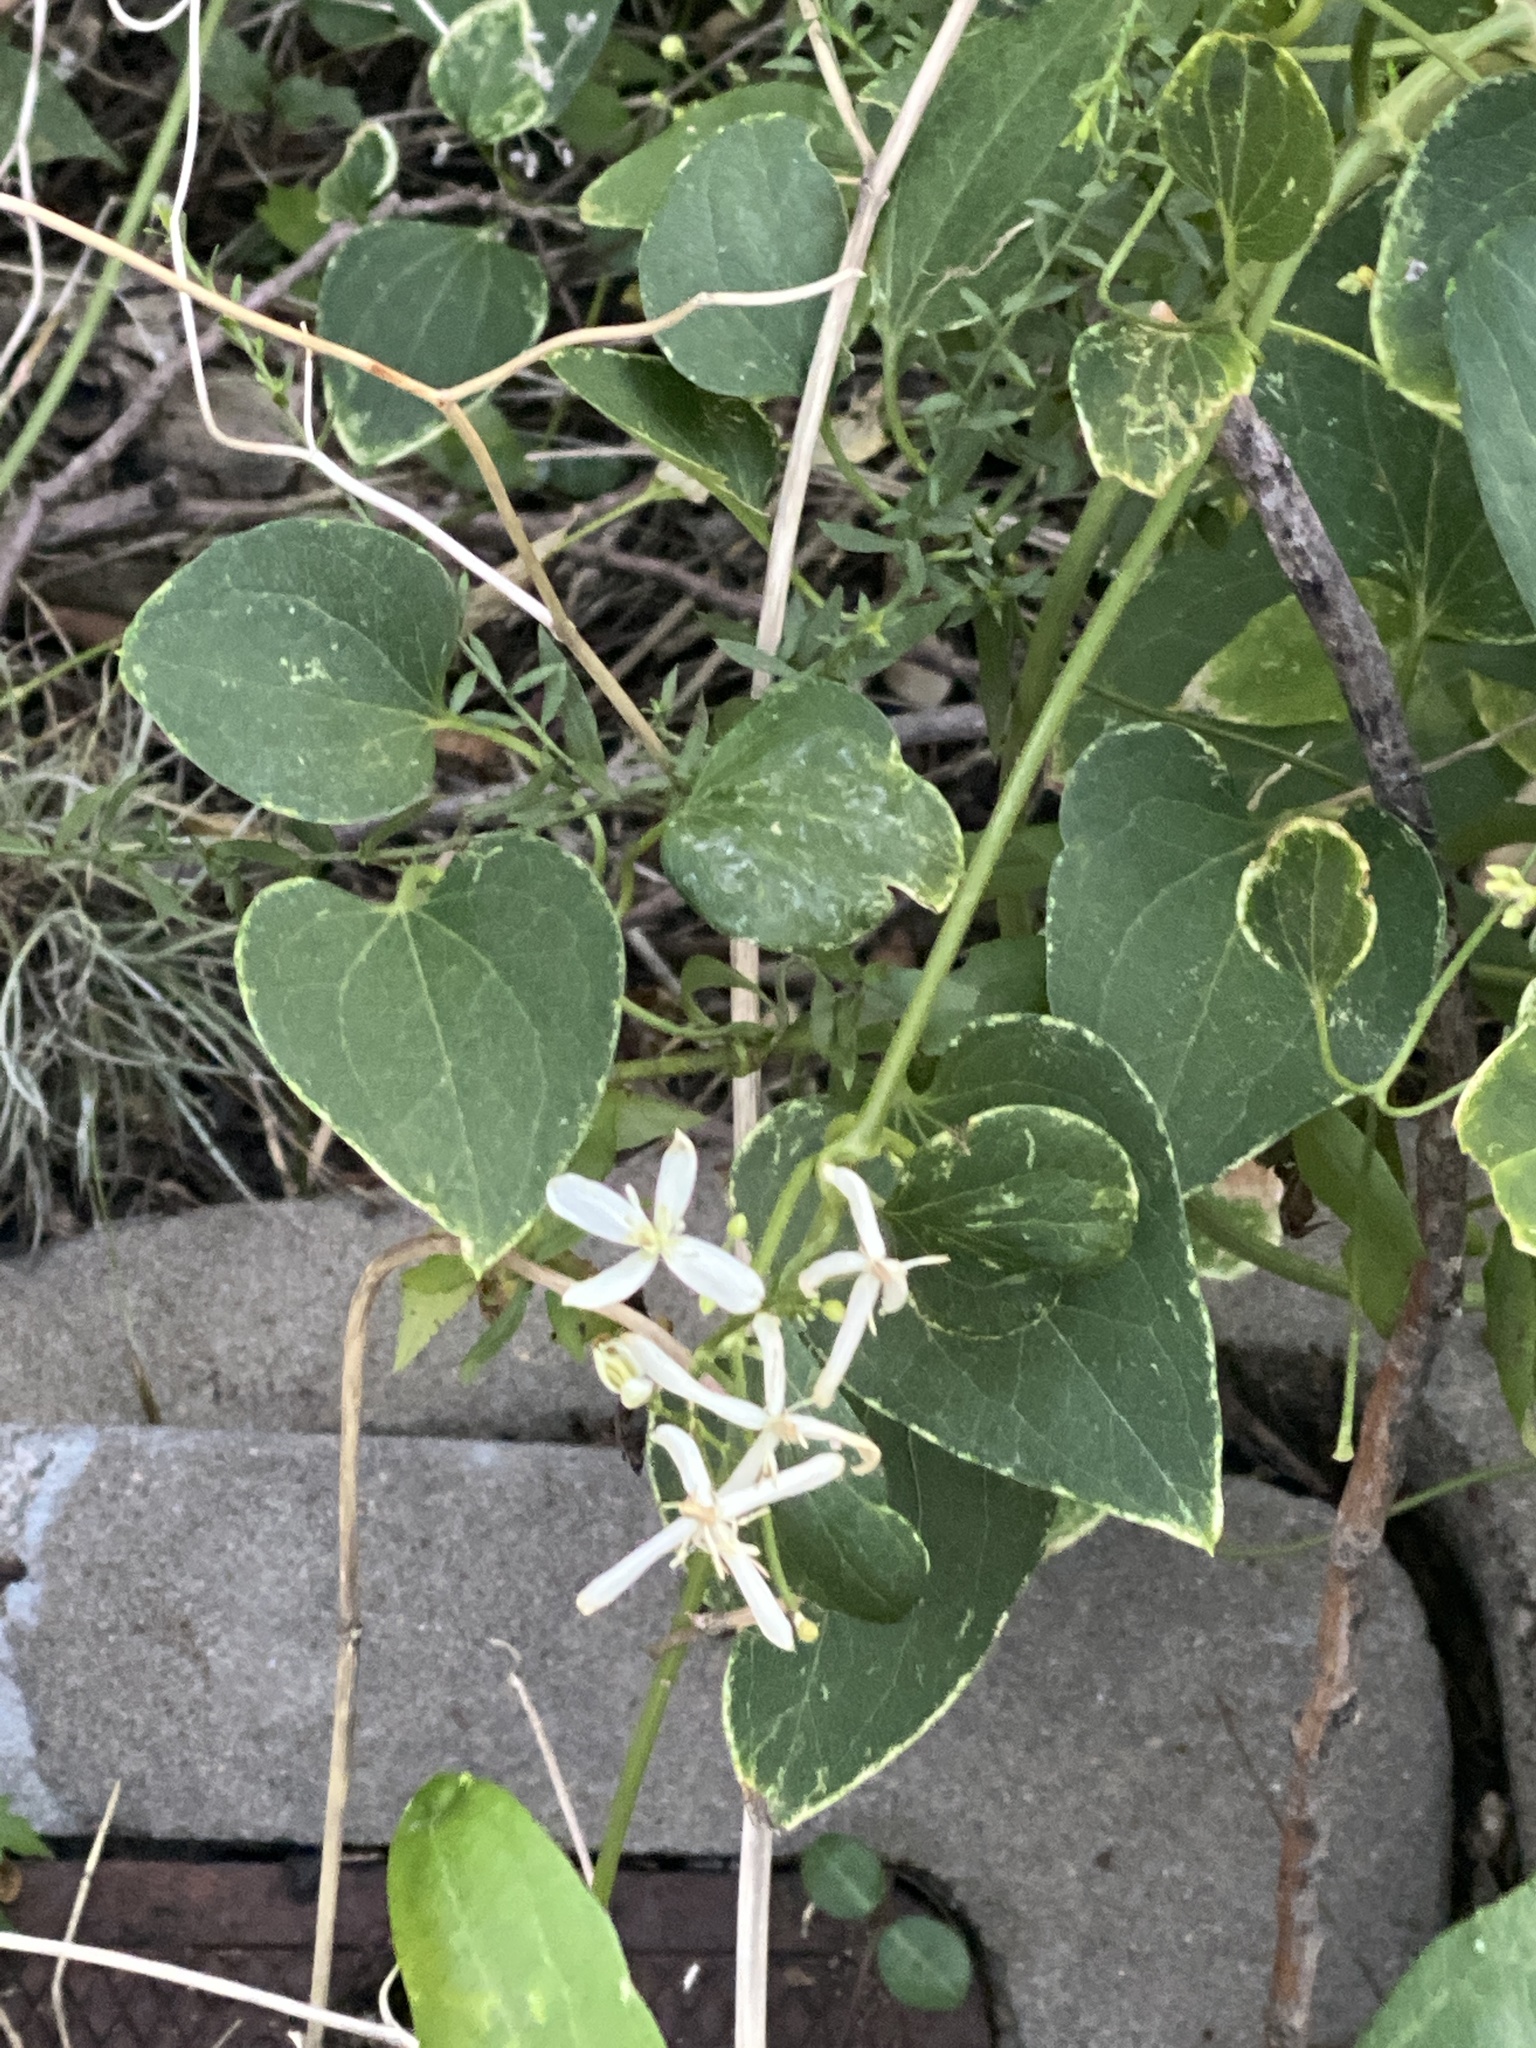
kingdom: Plantae
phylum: Tracheophyta
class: Magnoliopsida
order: Ranunculales
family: Ranunculaceae
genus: Clematis
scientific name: Clematis terniflora
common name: Sweet autumn clematis
